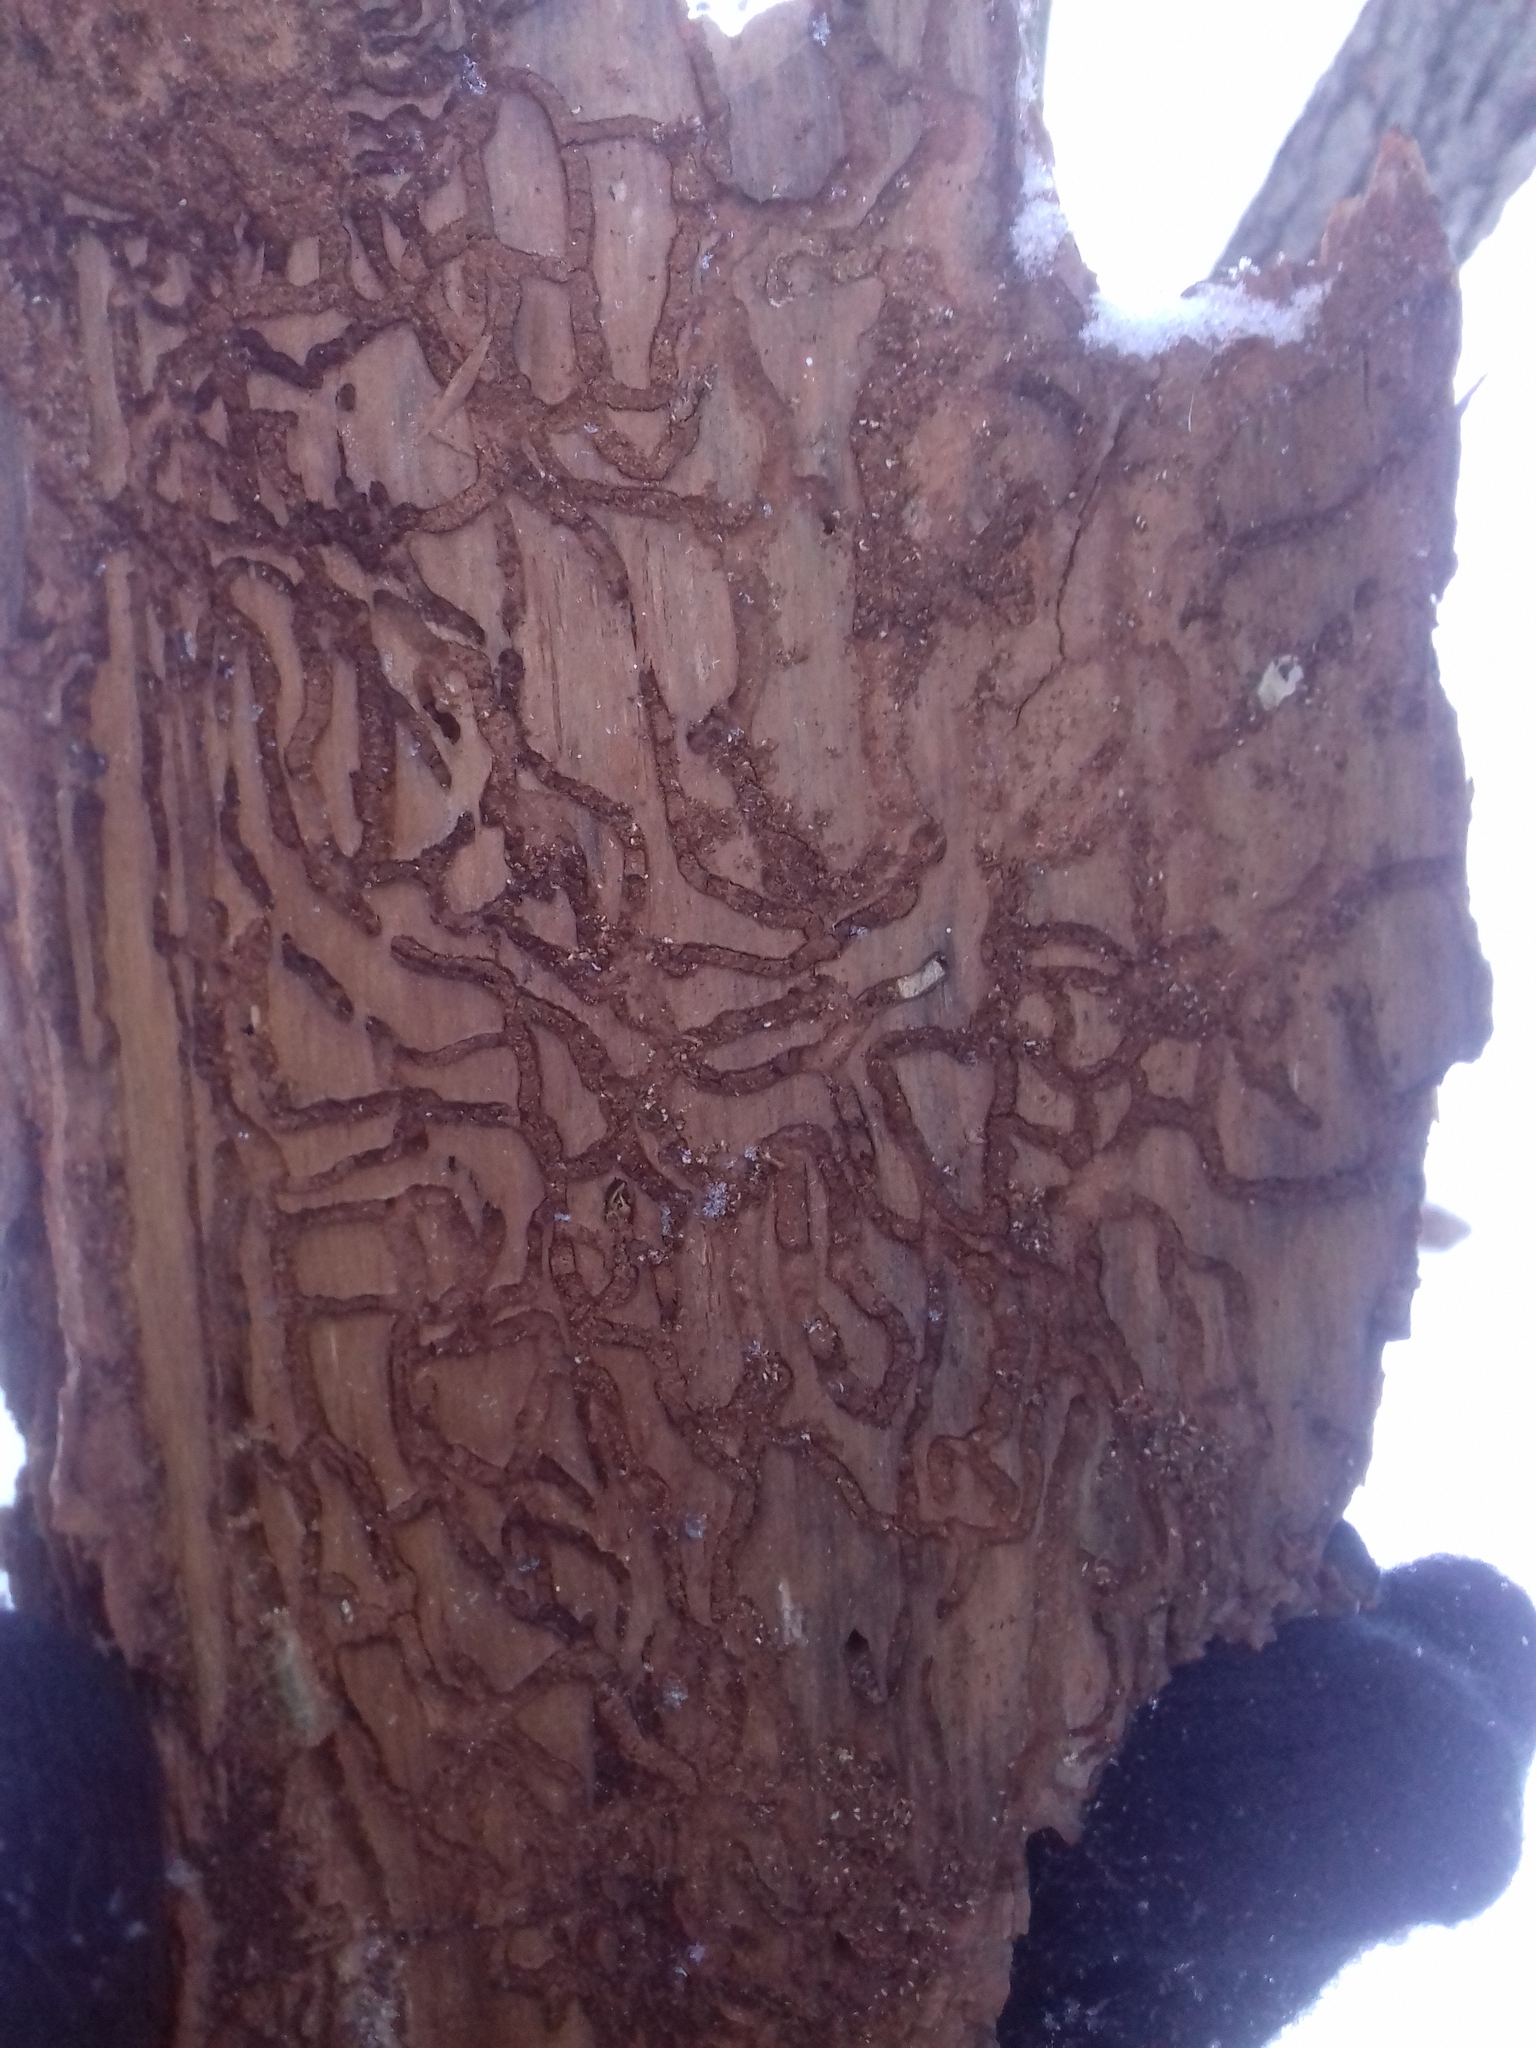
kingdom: Animalia
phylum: Arthropoda
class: Insecta
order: Coleoptera
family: Curculionidae
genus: Tomicus
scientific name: Tomicus piniperda
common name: Large pine shoot beetle
